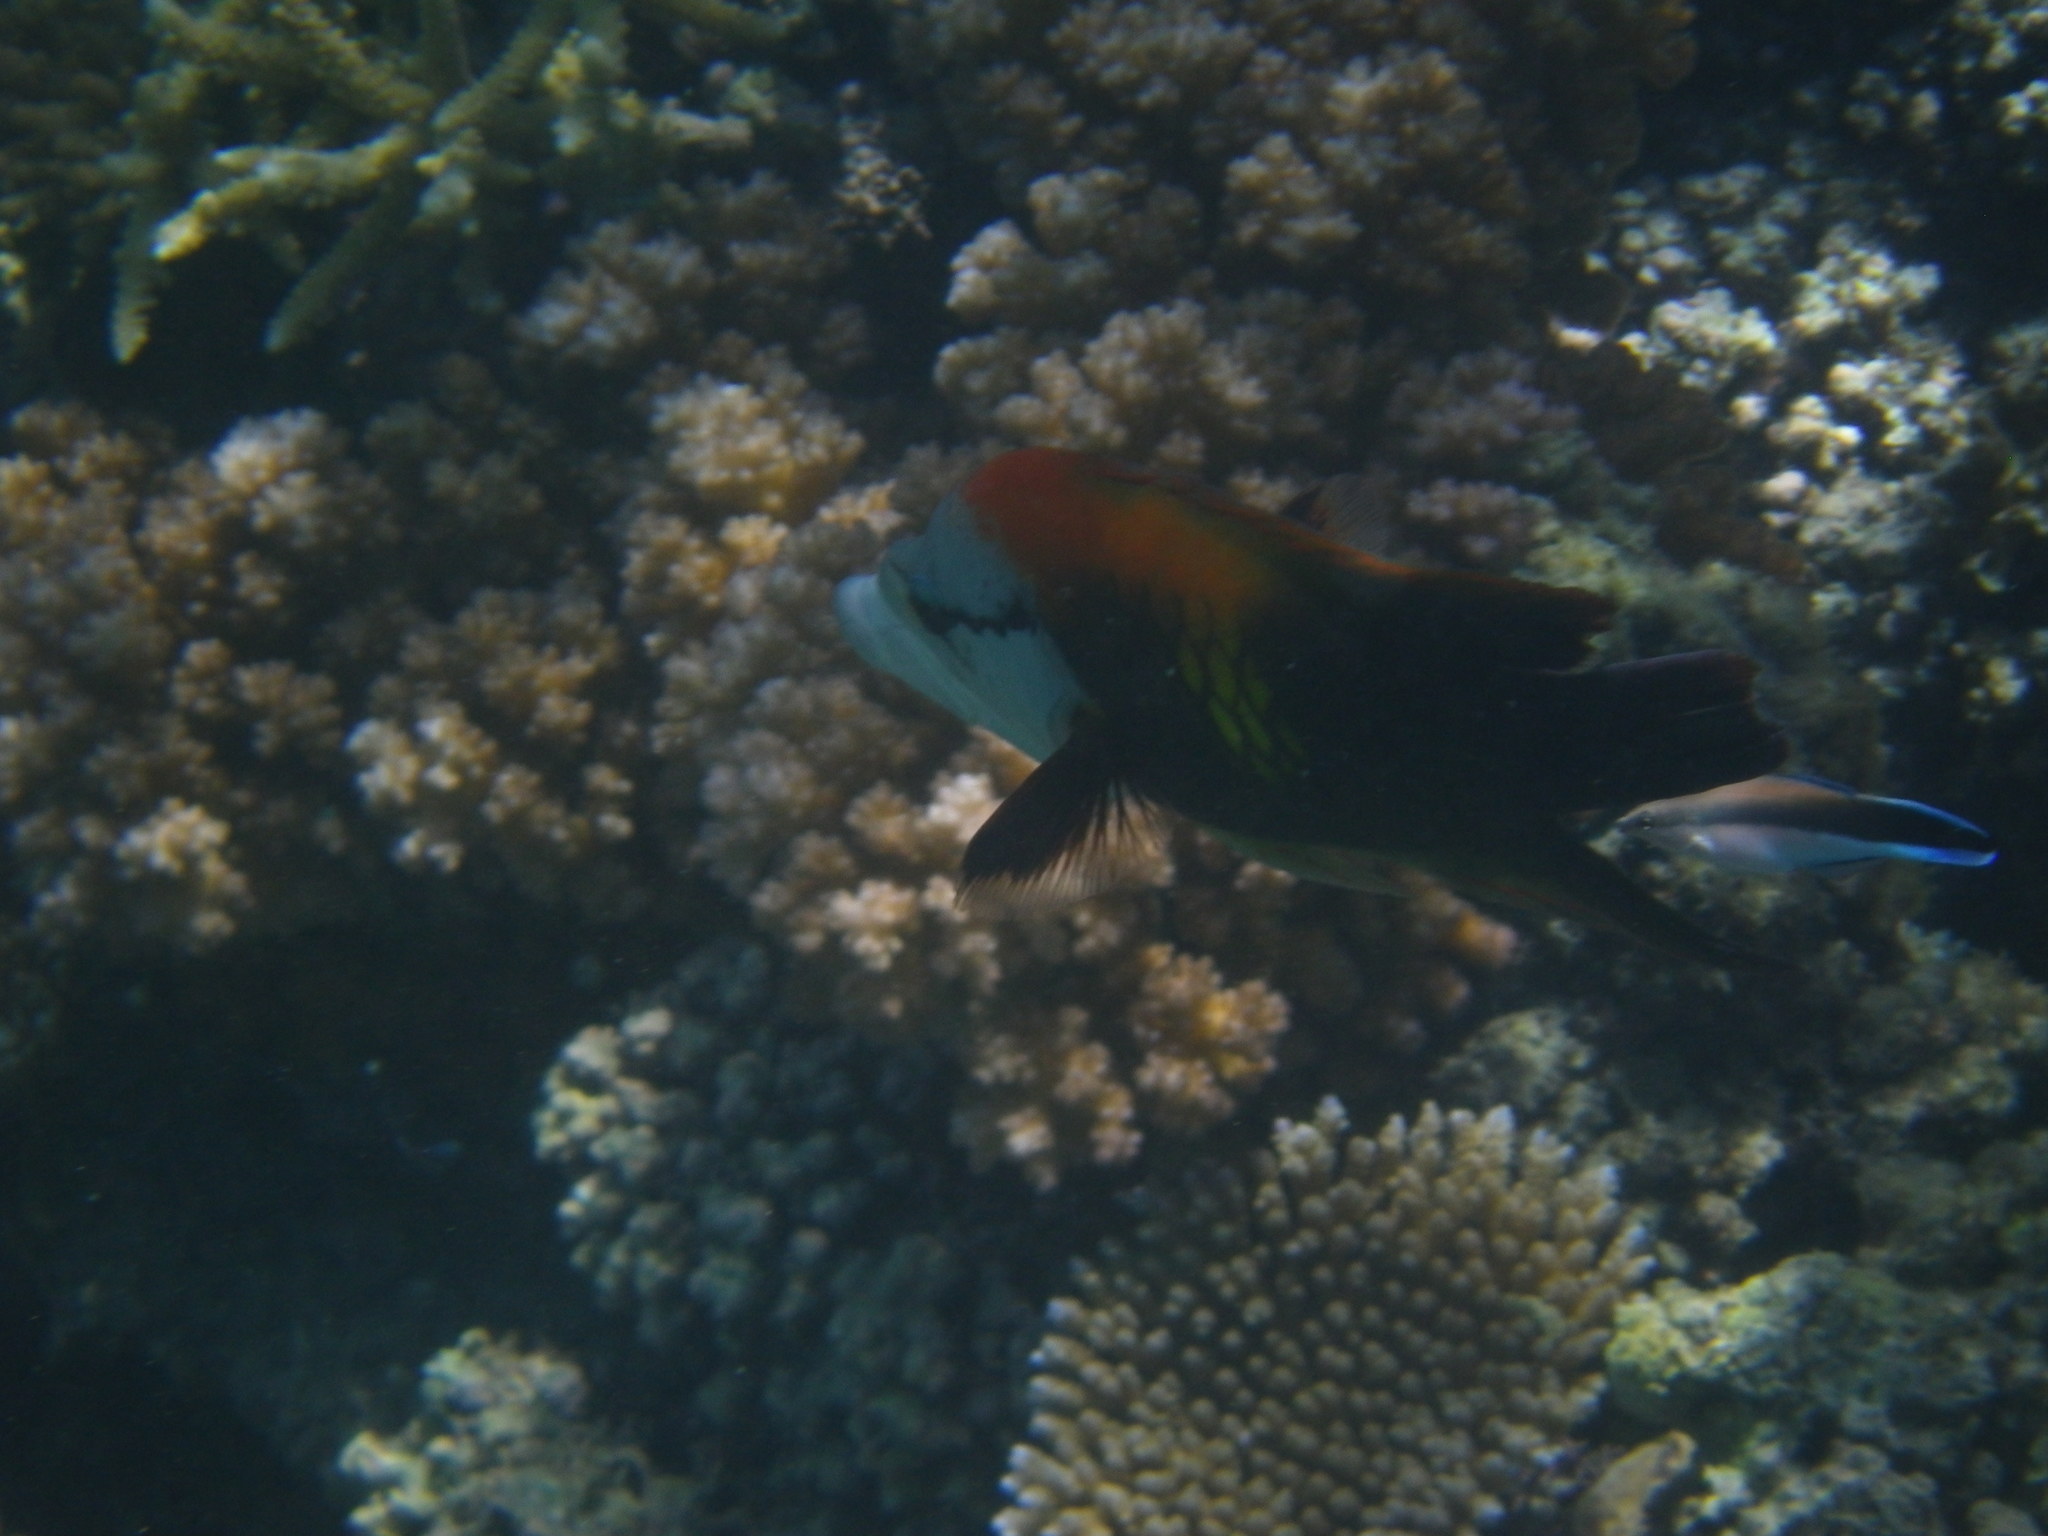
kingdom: Animalia
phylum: Chordata
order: Perciformes
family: Labridae
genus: Epibulus
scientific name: Epibulus insidiator
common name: Slingjaw wrasse
